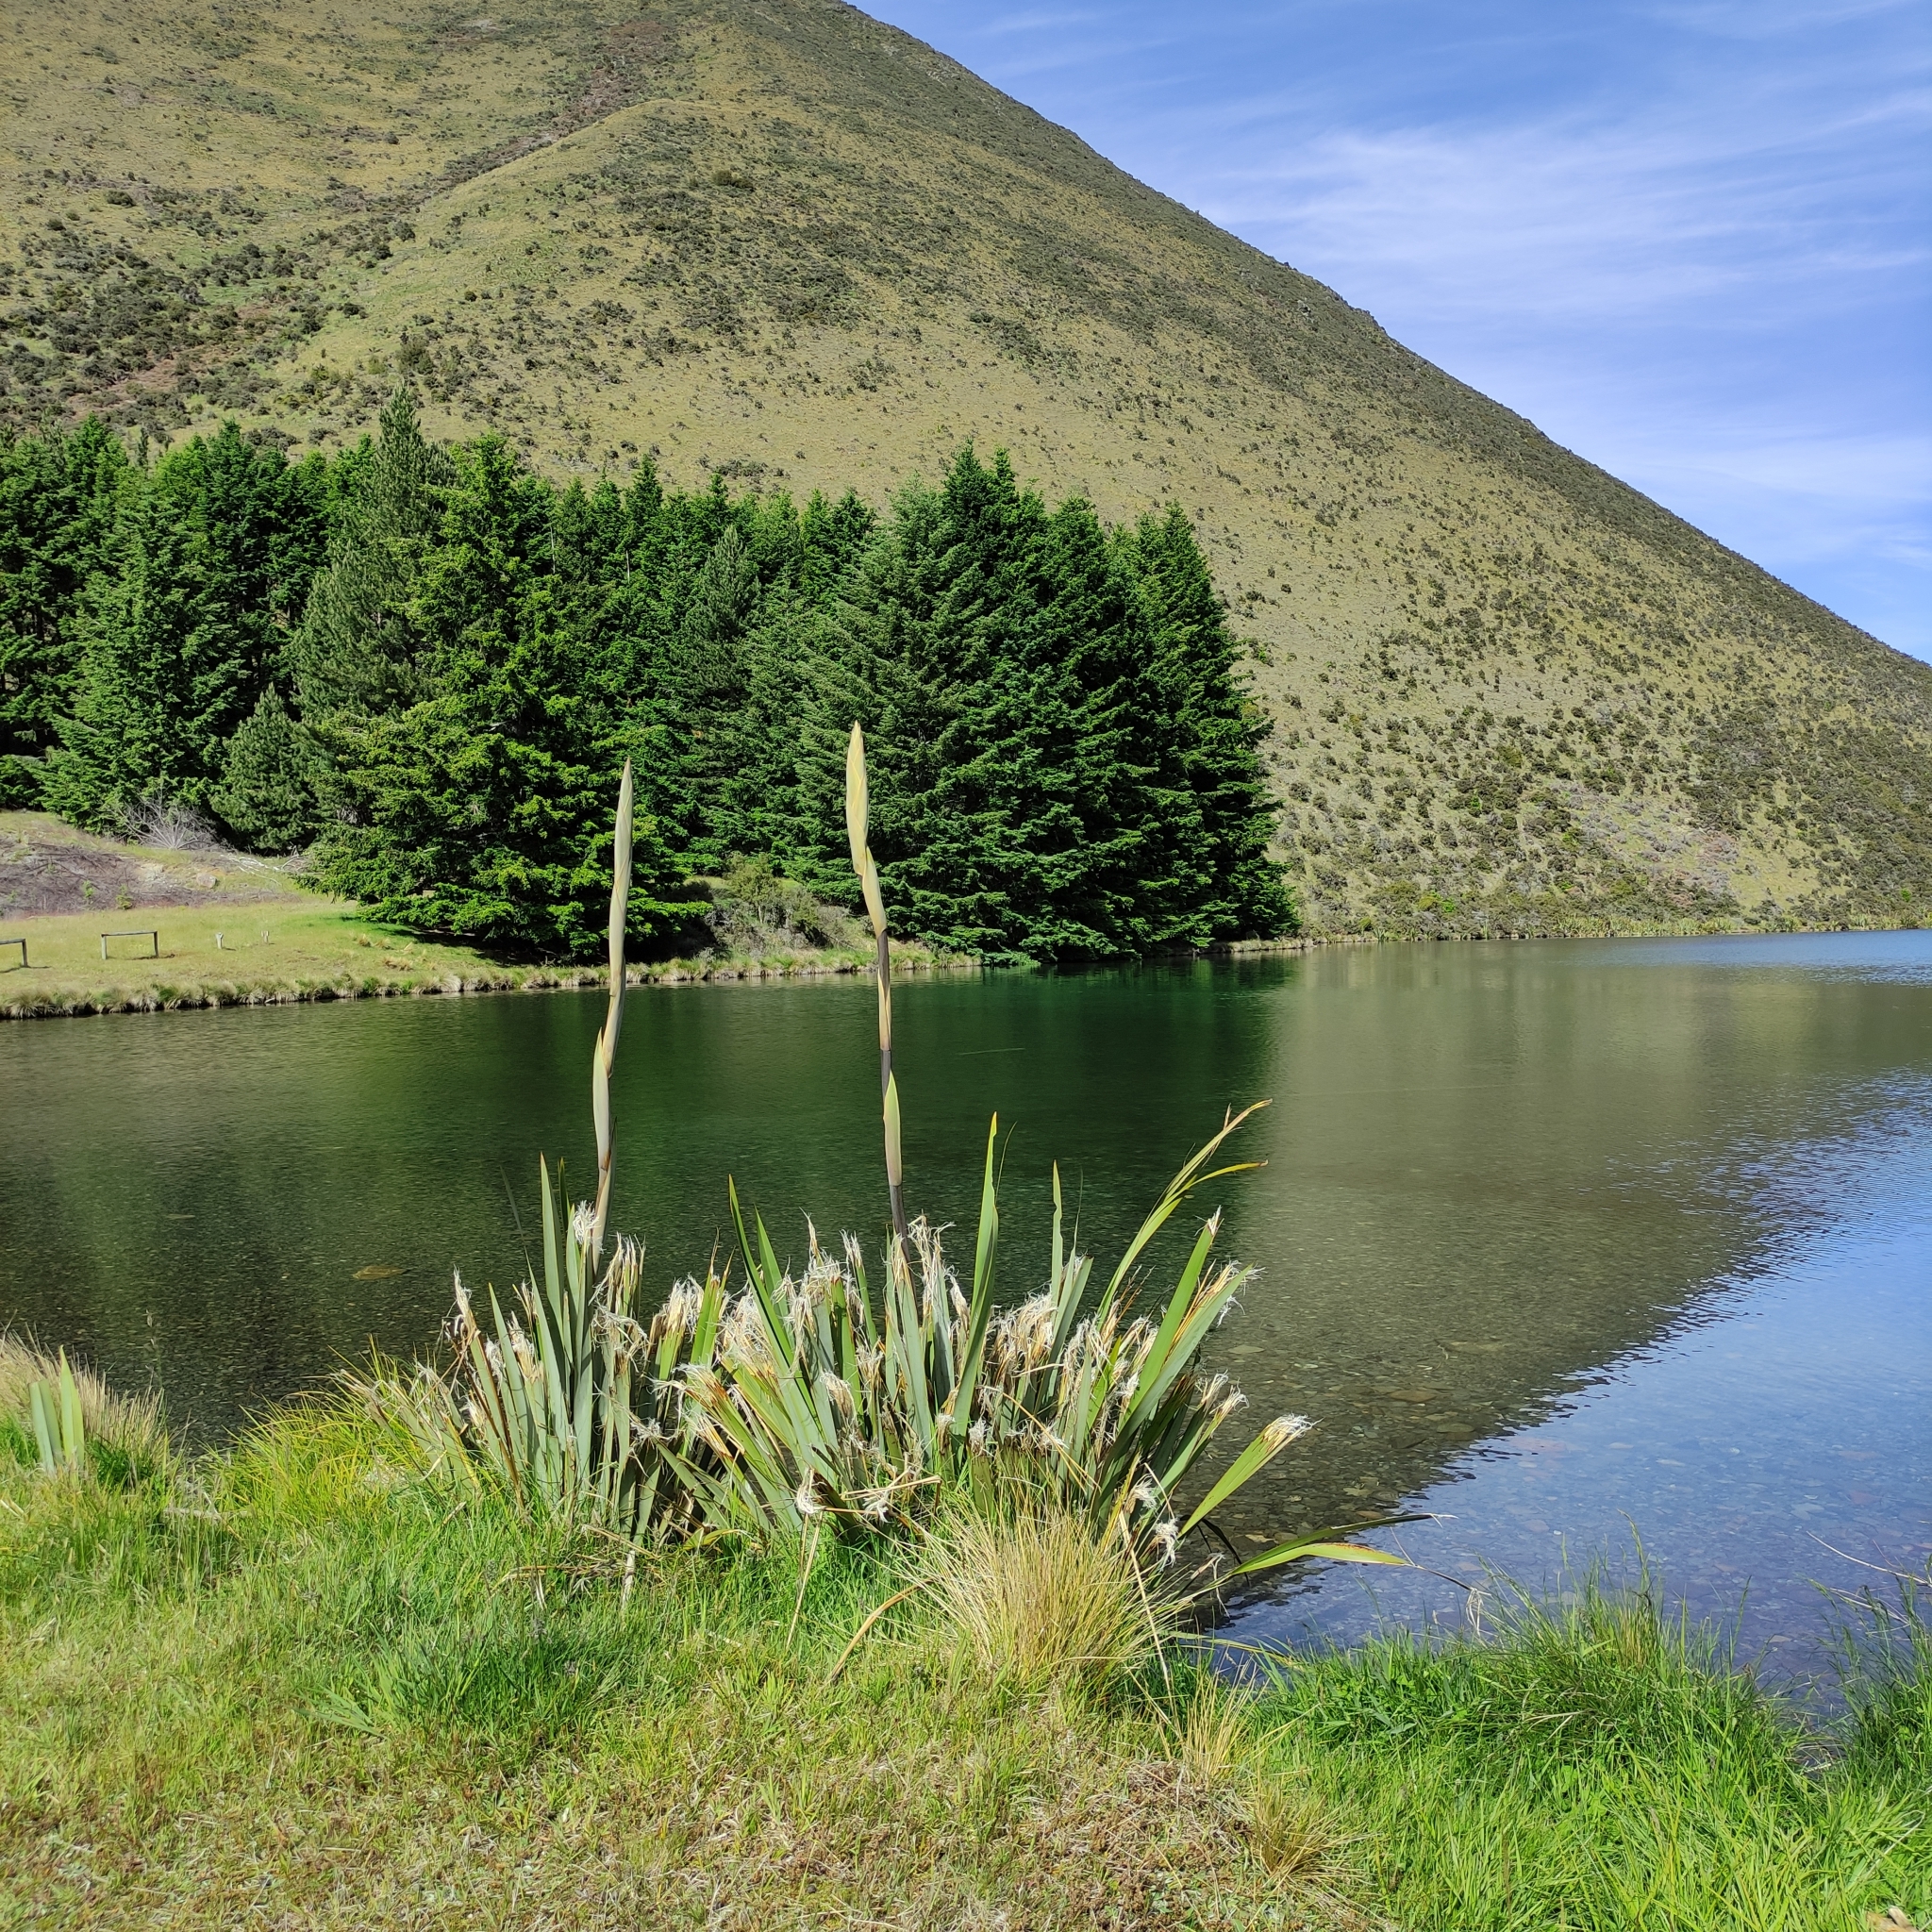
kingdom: Plantae
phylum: Tracheophyta
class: Liliopsida
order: Asparagales
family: Asphodelaceae
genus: Phormium
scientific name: Phormium tenax
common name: New zealand flax
